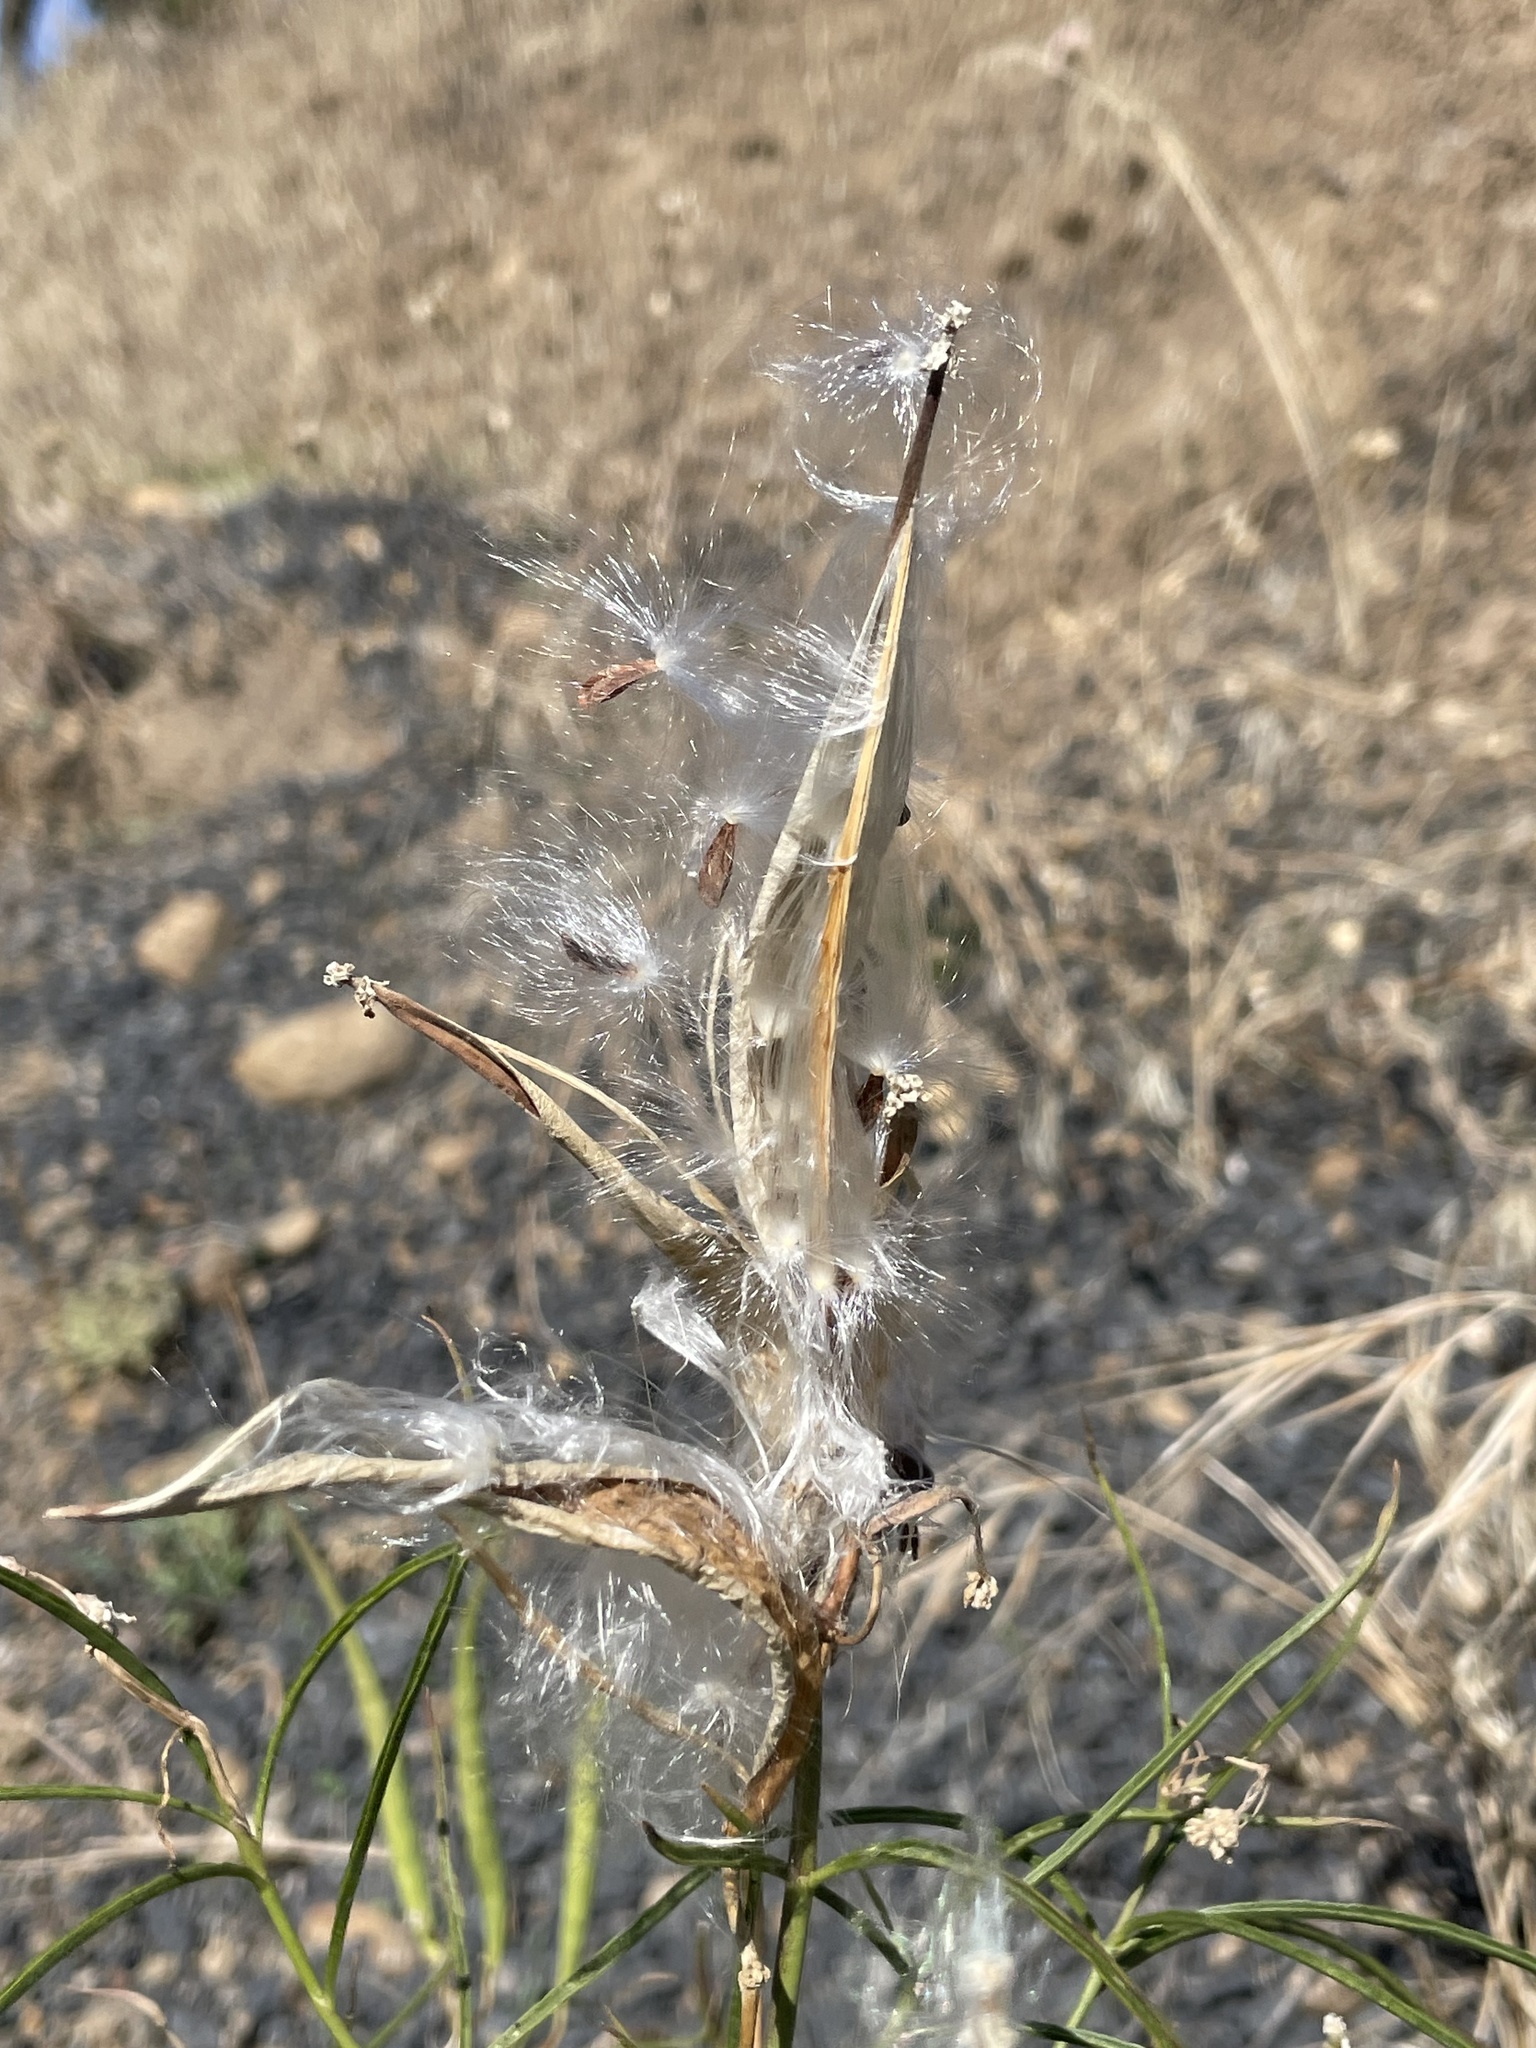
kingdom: Plantae
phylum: Tracheophyta
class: Magnoliopsida
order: Gentianales
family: Apocynaceae
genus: Asclepias
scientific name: Asclepias fascicularis
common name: Mexican milkweed
